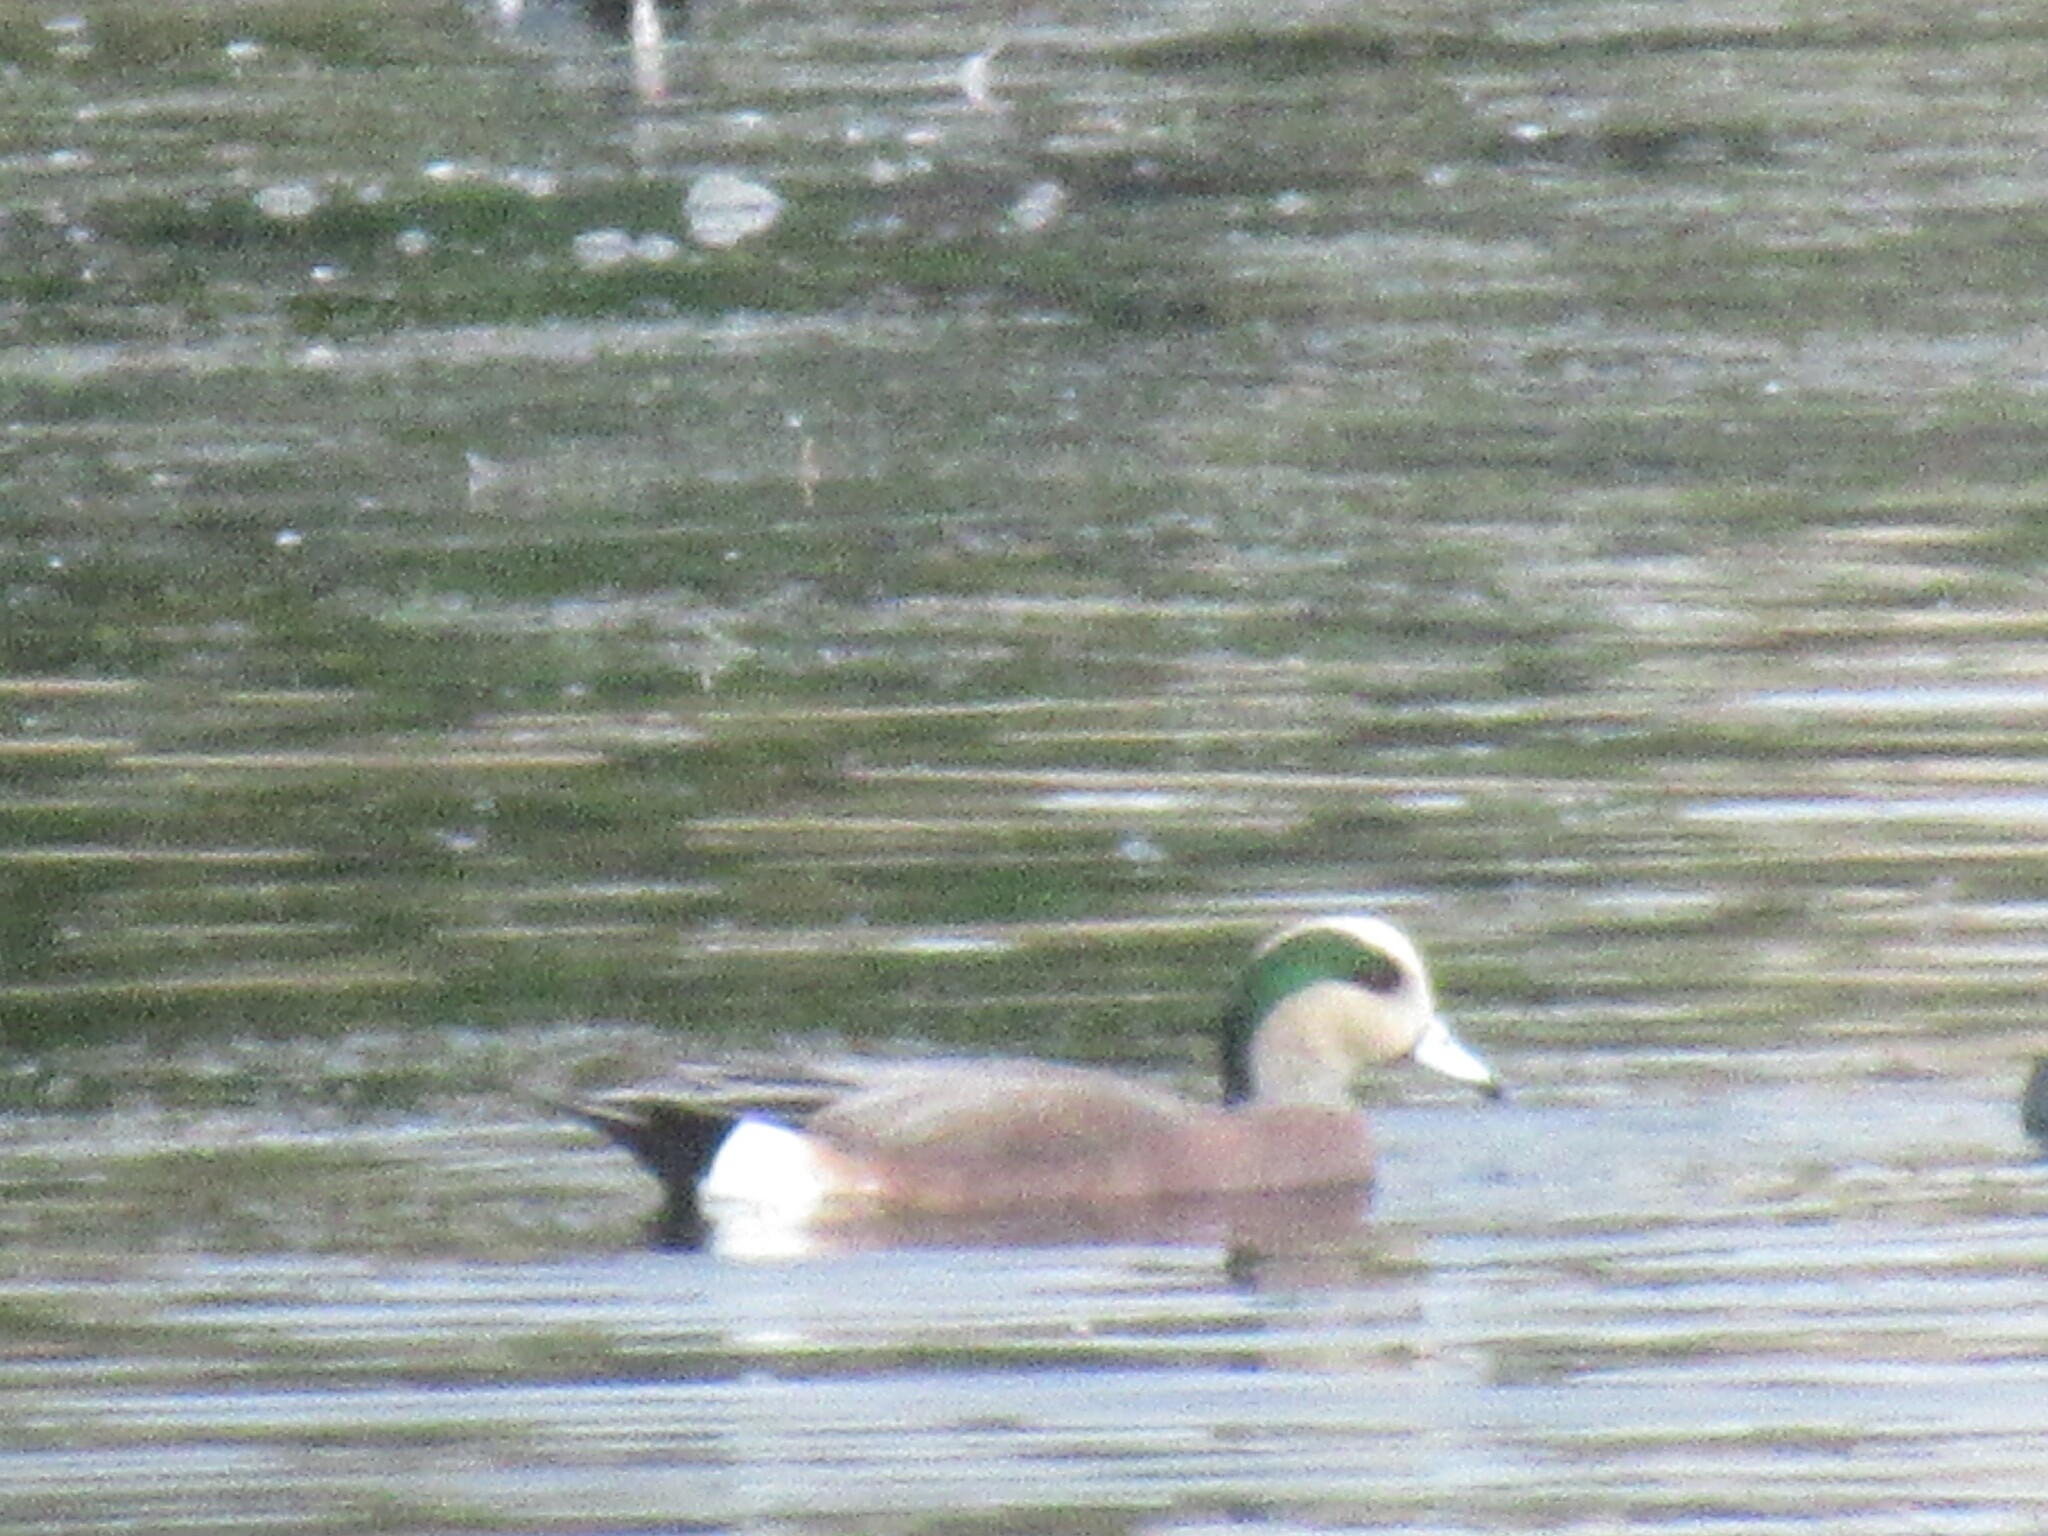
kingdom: Animalia
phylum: Chordata
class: Aves
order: Anseriformes
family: Anatidae
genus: Mareca
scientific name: Mareca americana
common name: American wigeon
